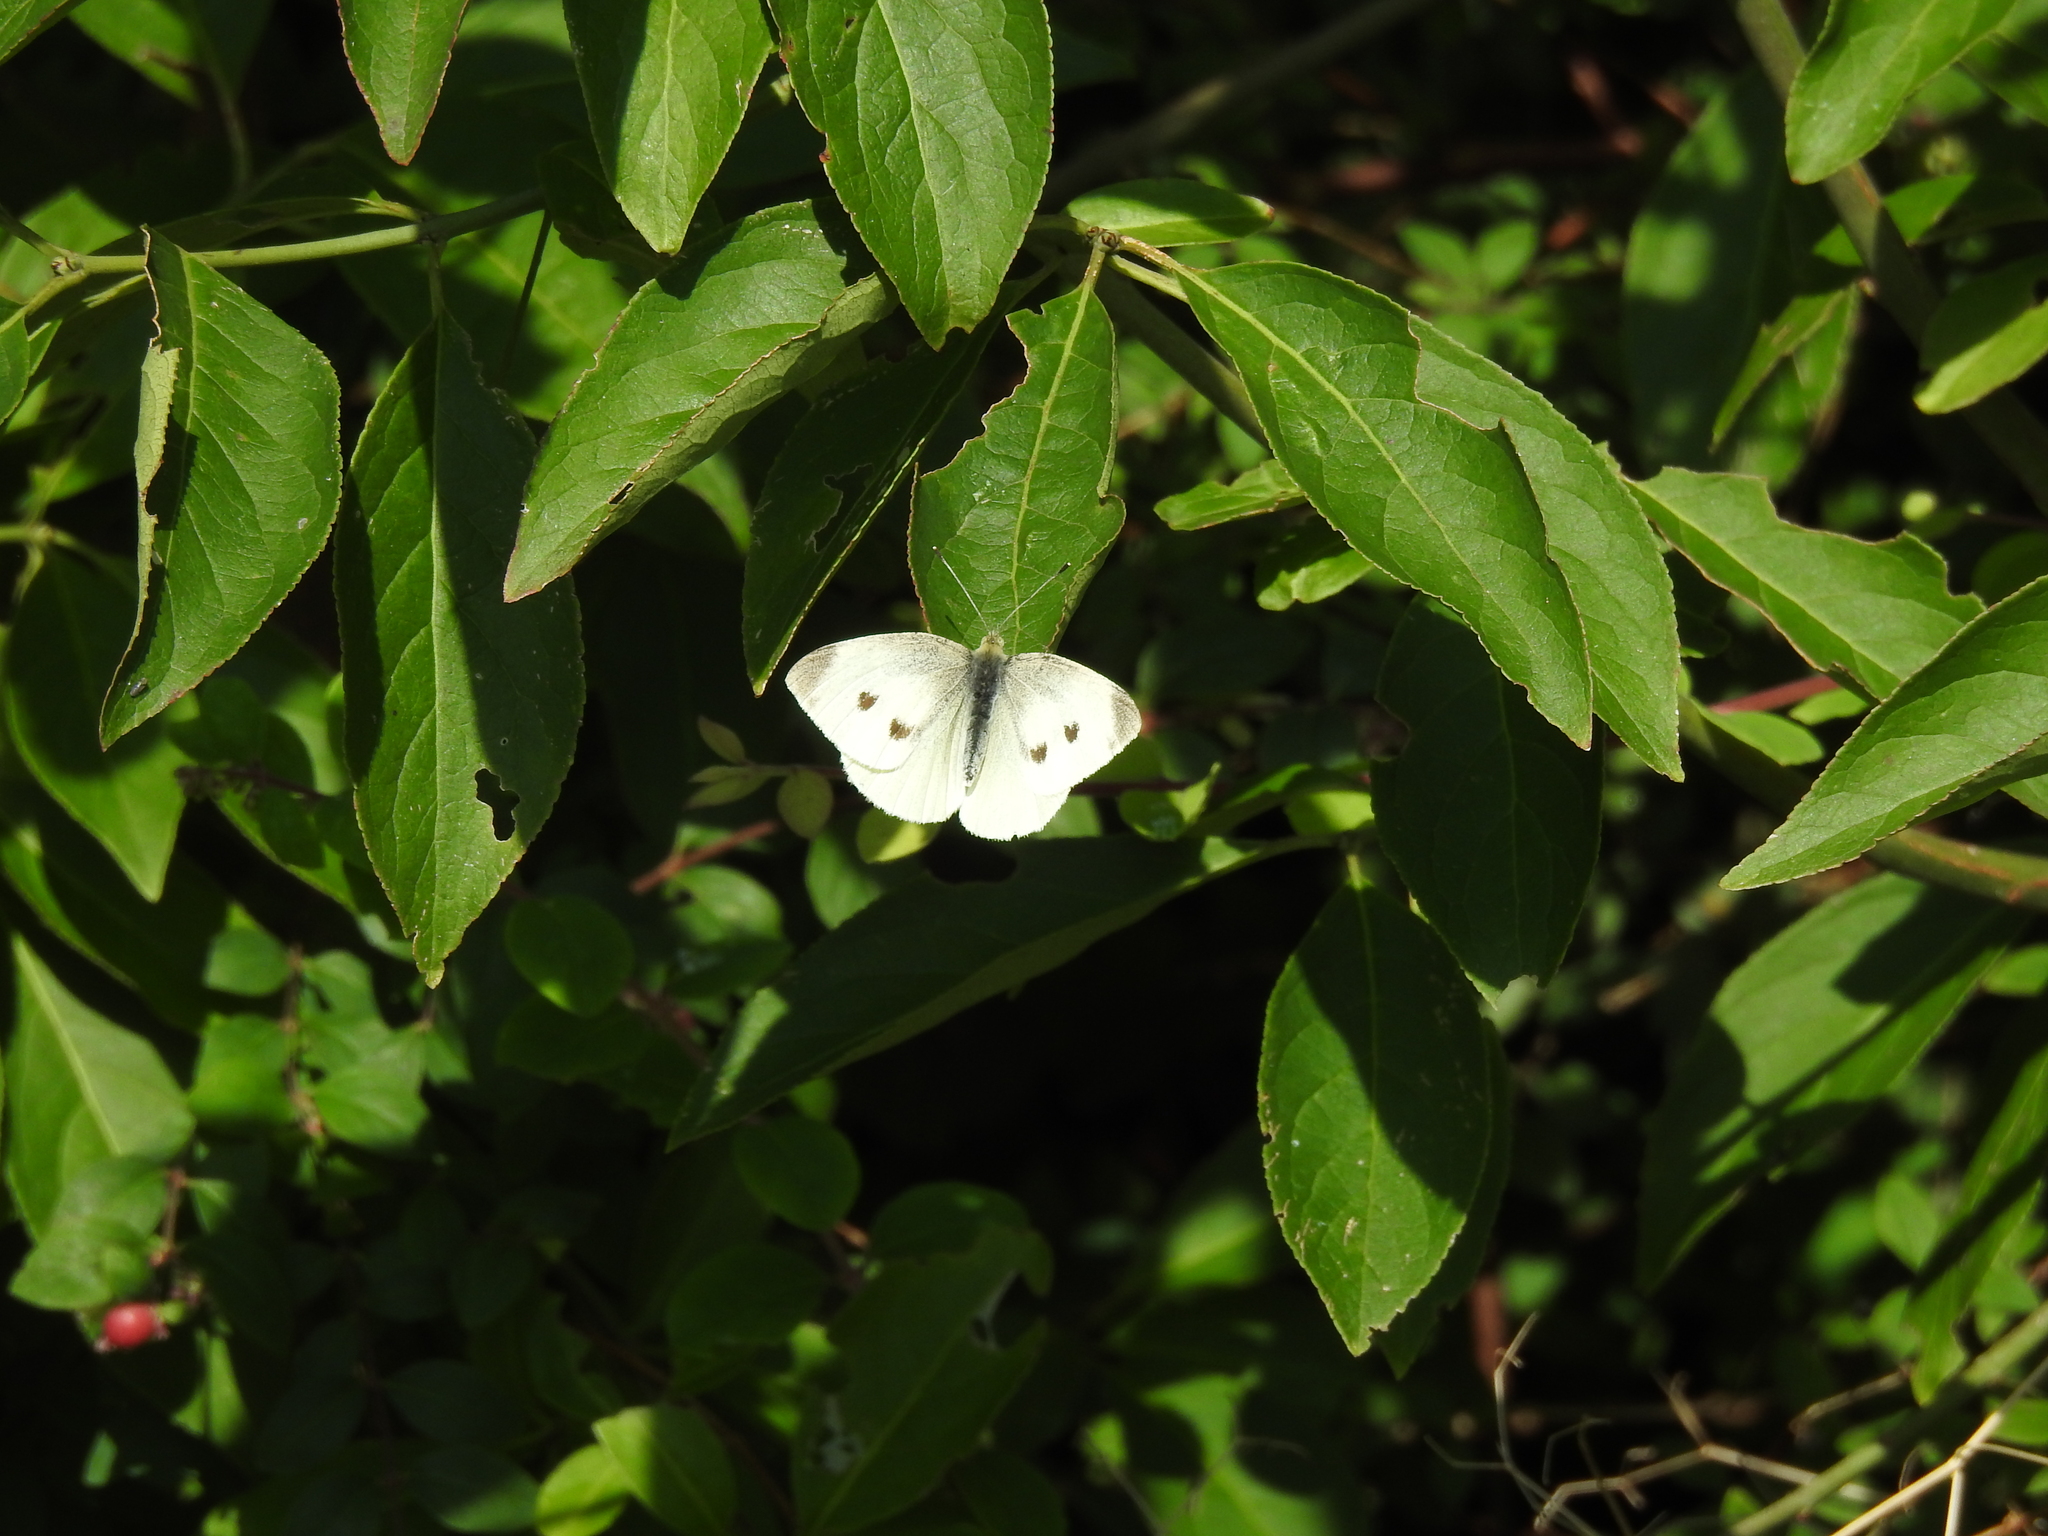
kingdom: Animalia
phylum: Arthropoda
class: Insecta
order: Lepidoptera
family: Pieridae
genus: Pieris
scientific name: Pieris rapae
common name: Small white
